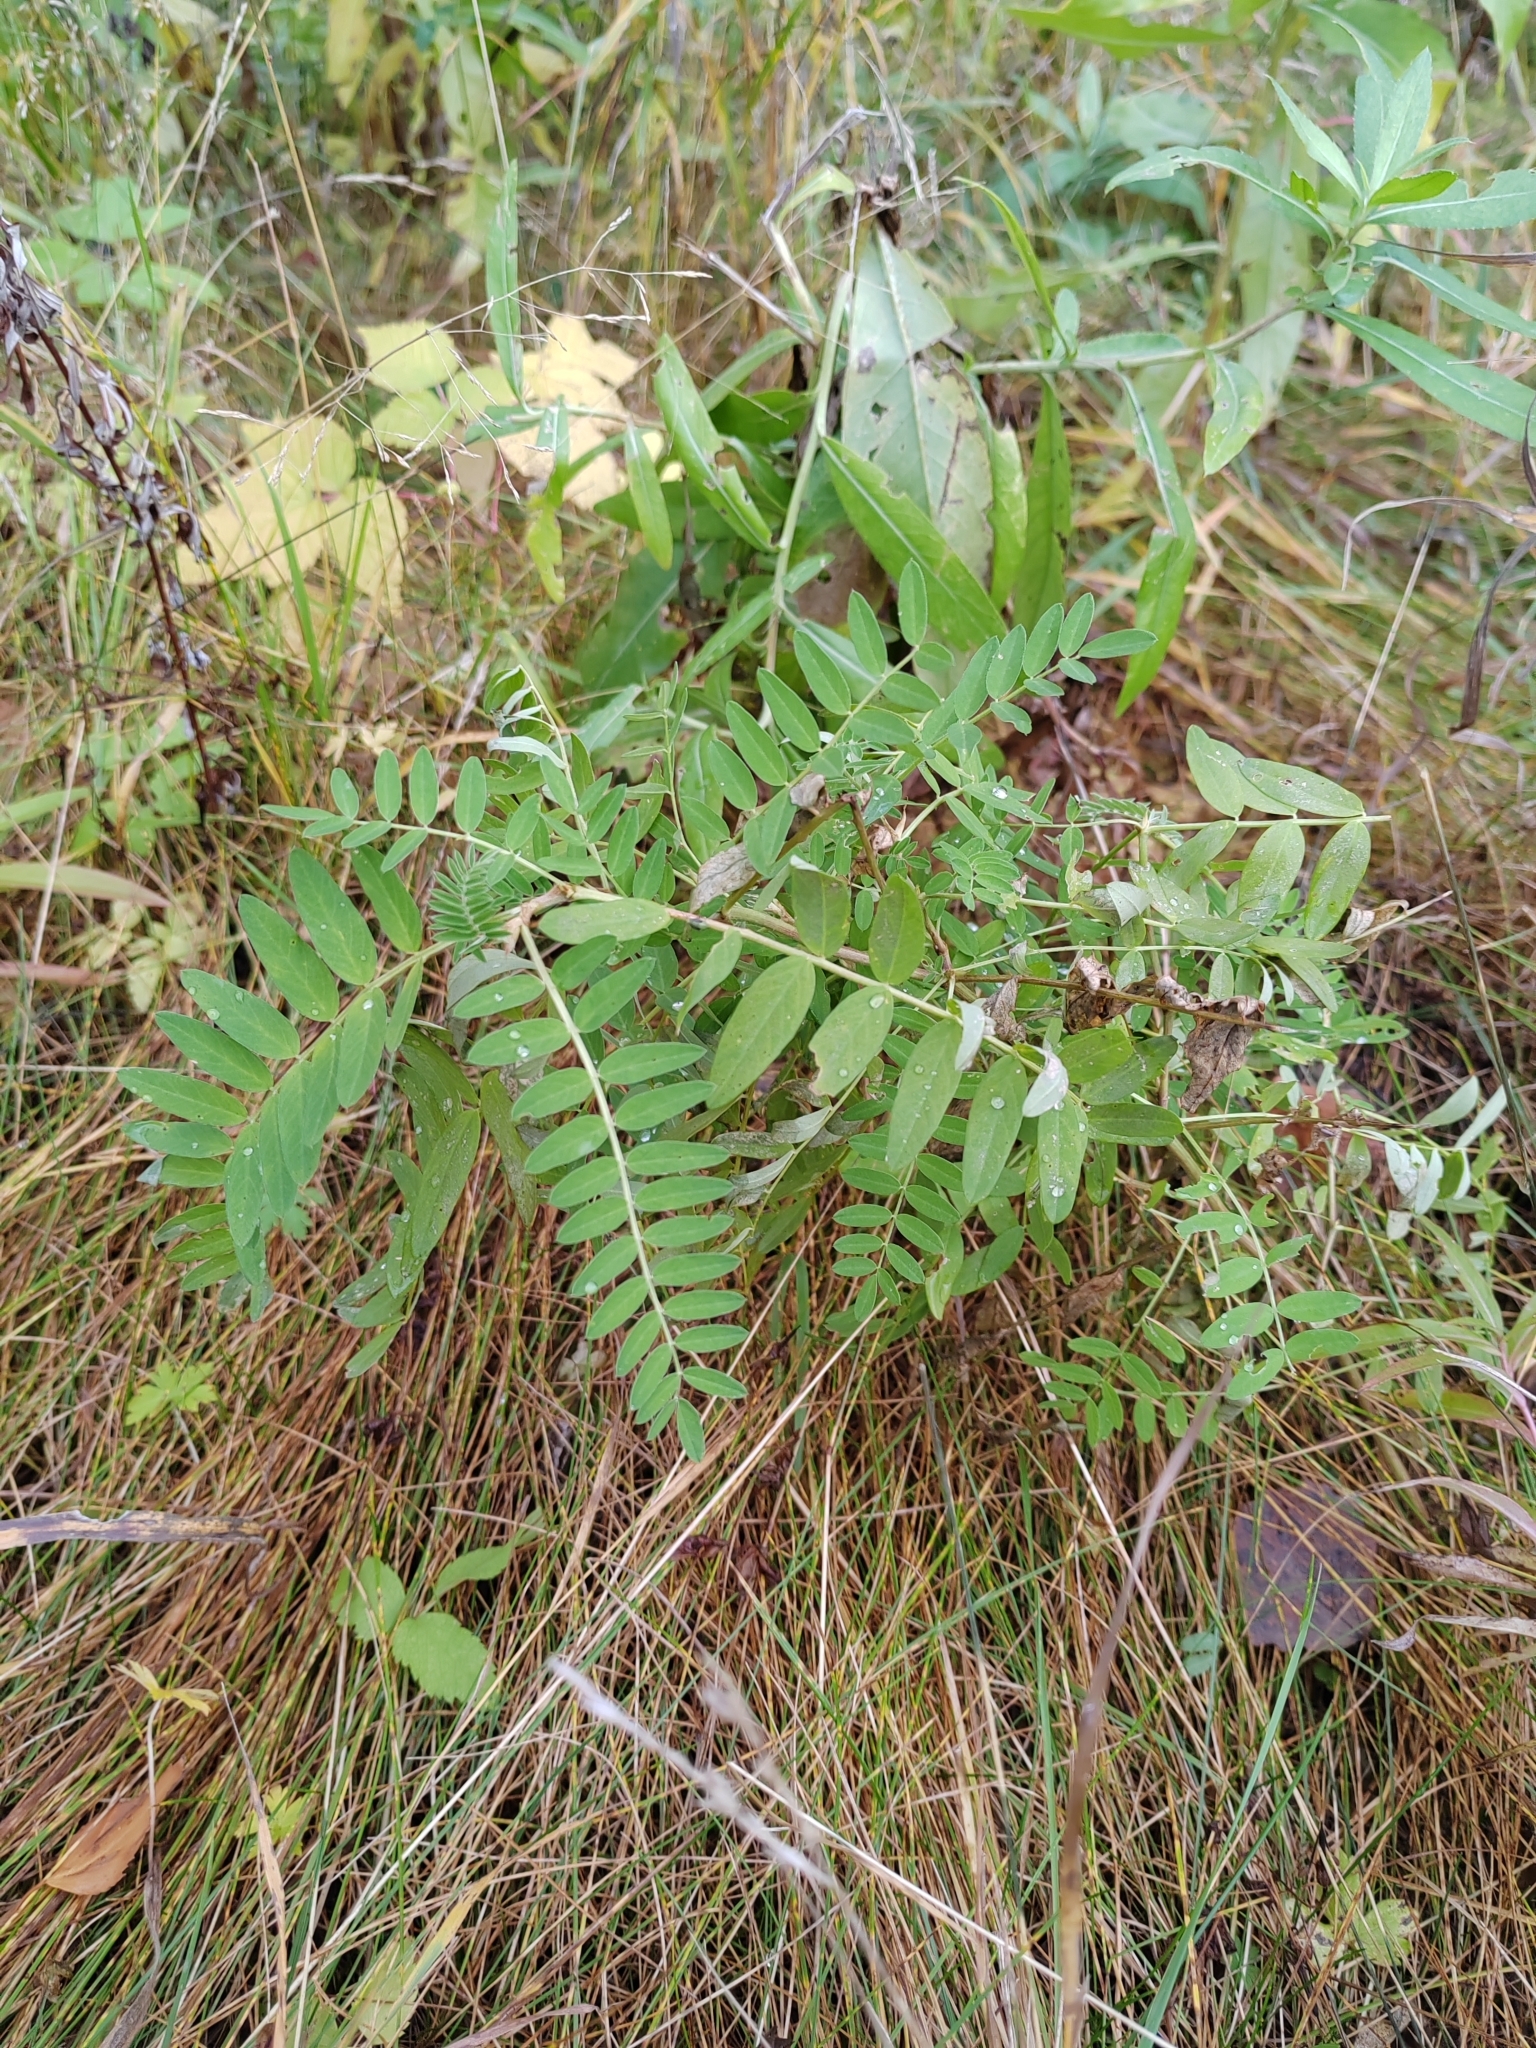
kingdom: Plantae
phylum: Tracheophyta
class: Magnoliopsida
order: Fabales
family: Fabaceae
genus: Astragalus
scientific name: Astragalus uliginosus
